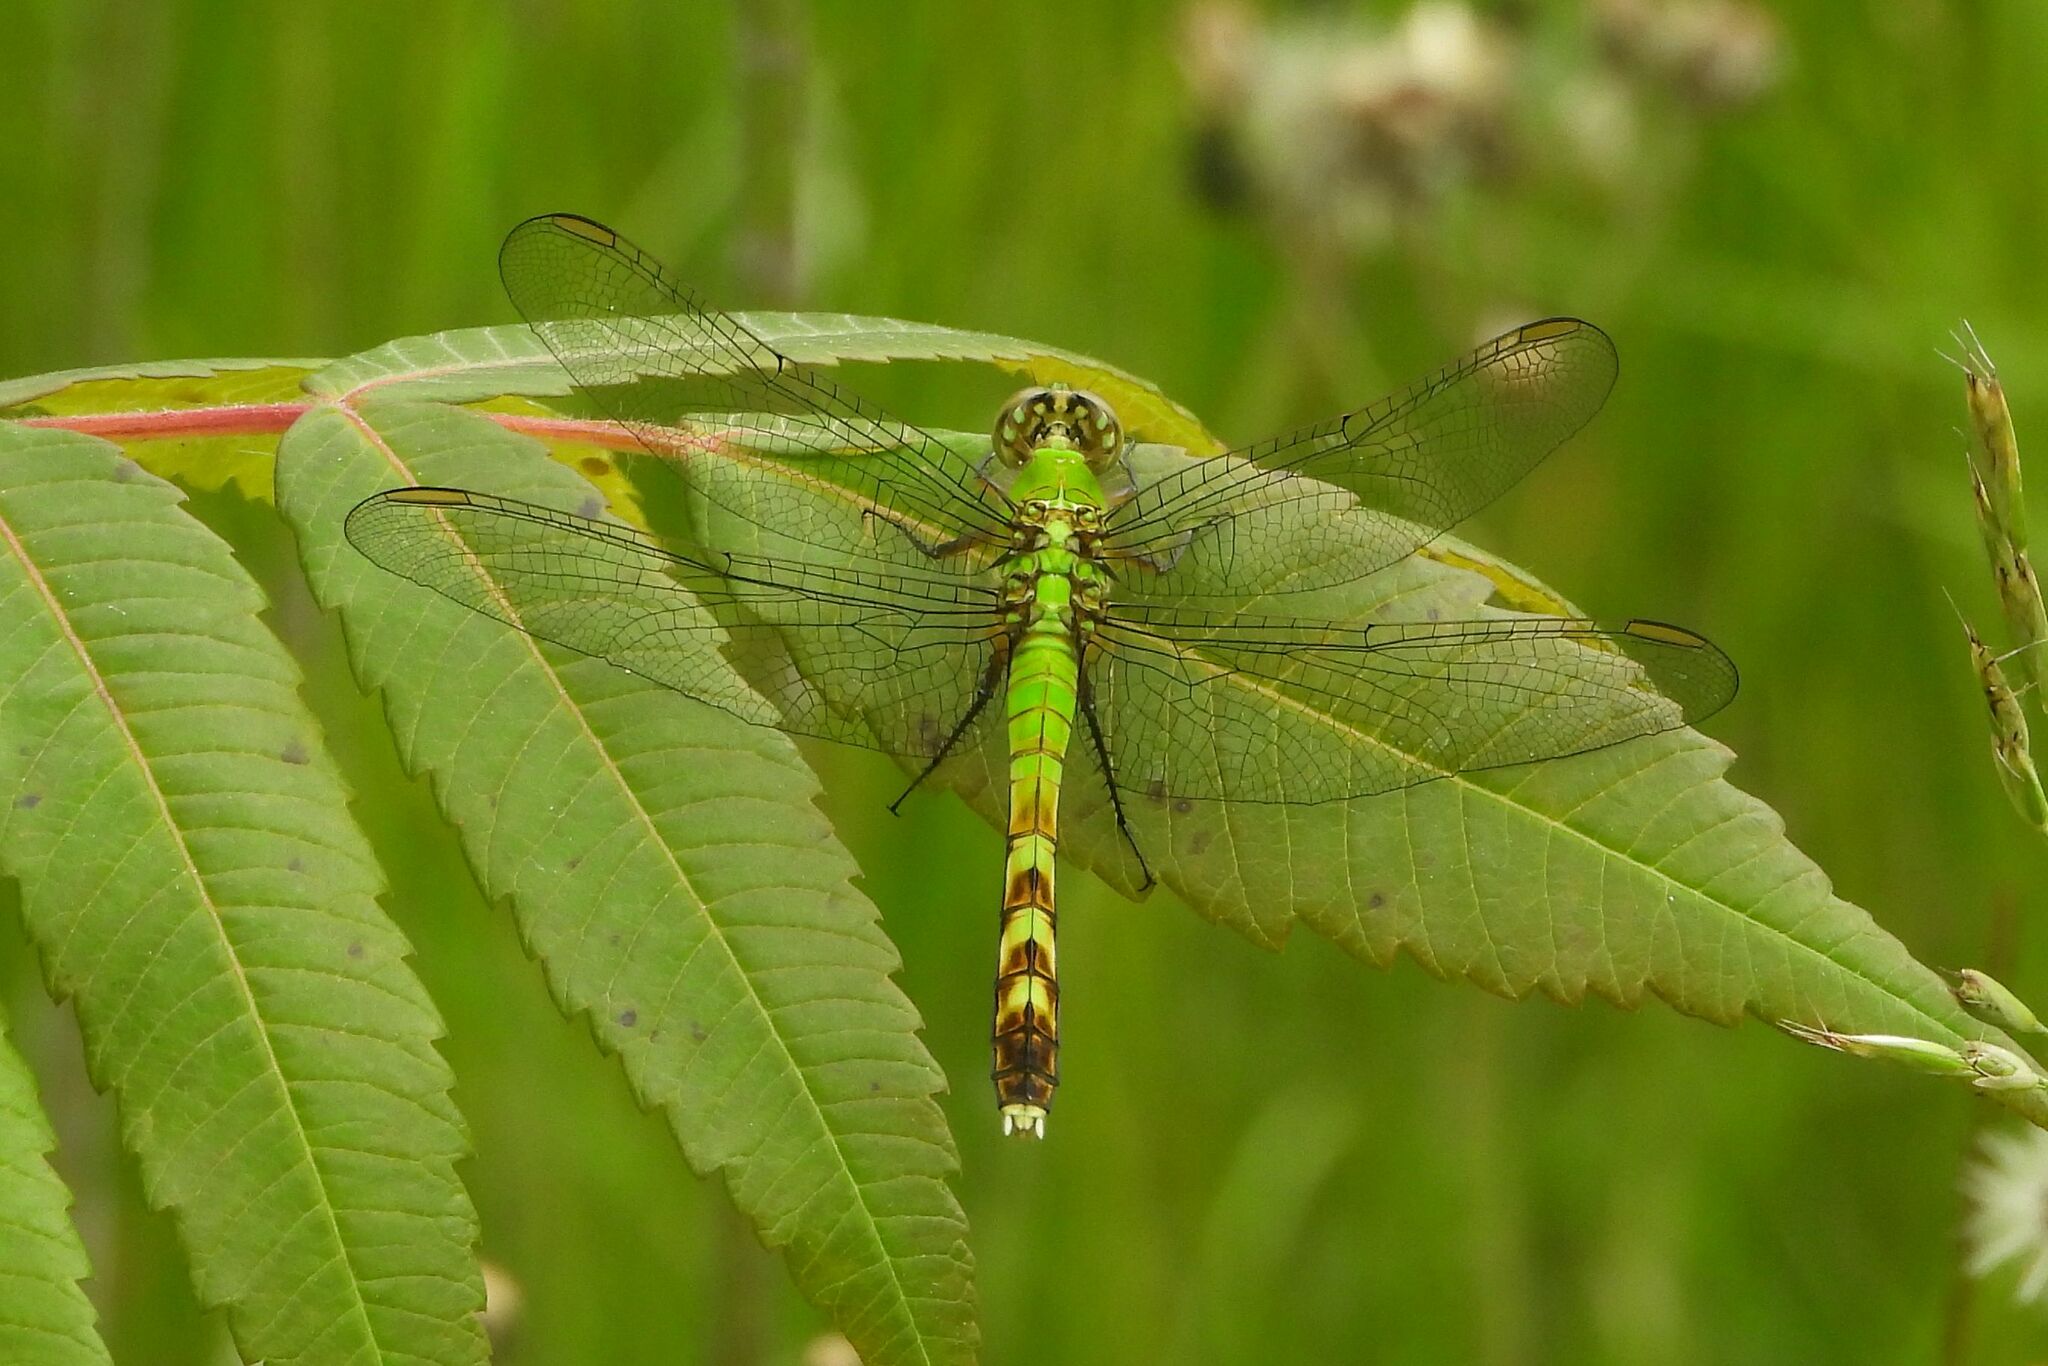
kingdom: Animalia
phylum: Arthropoda
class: Insecta
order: Odonata
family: Libellulidae
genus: Erythemis
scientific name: Erythemis simplicicollis
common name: Eastern pondhawk
